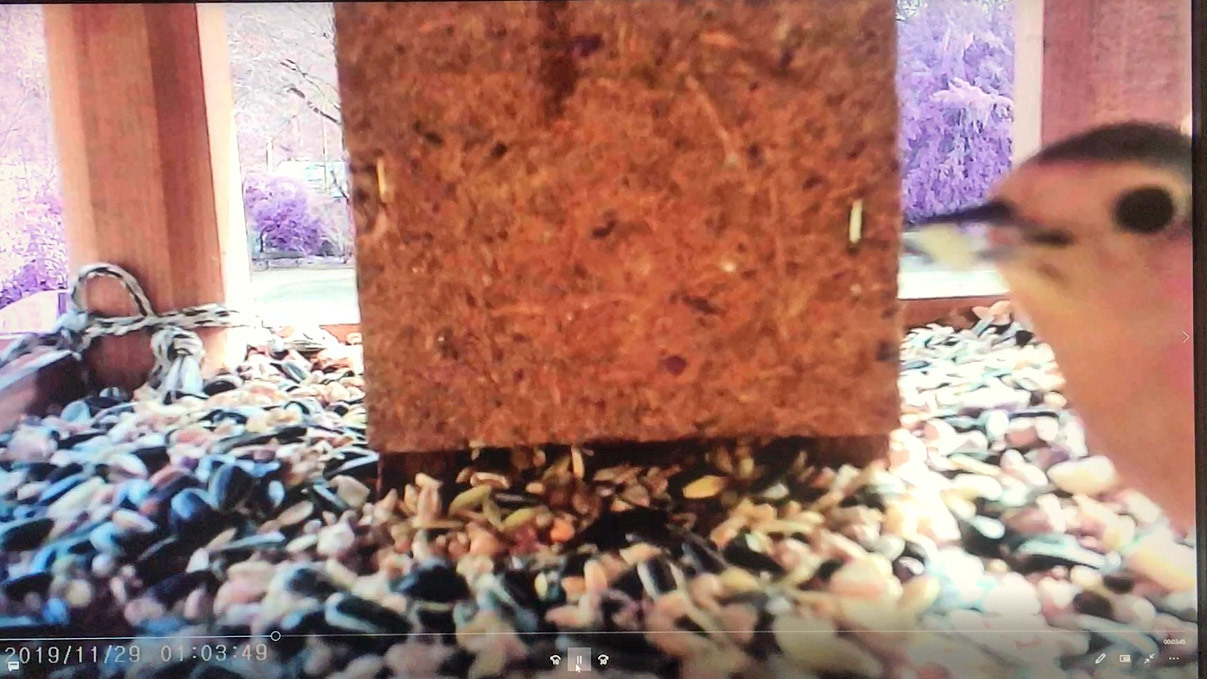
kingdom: Animalia
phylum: Chordata
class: Aves
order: Passeriformes
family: Muscicapidae
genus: Erithacus
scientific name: Erithacus rubecula
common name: European robin
